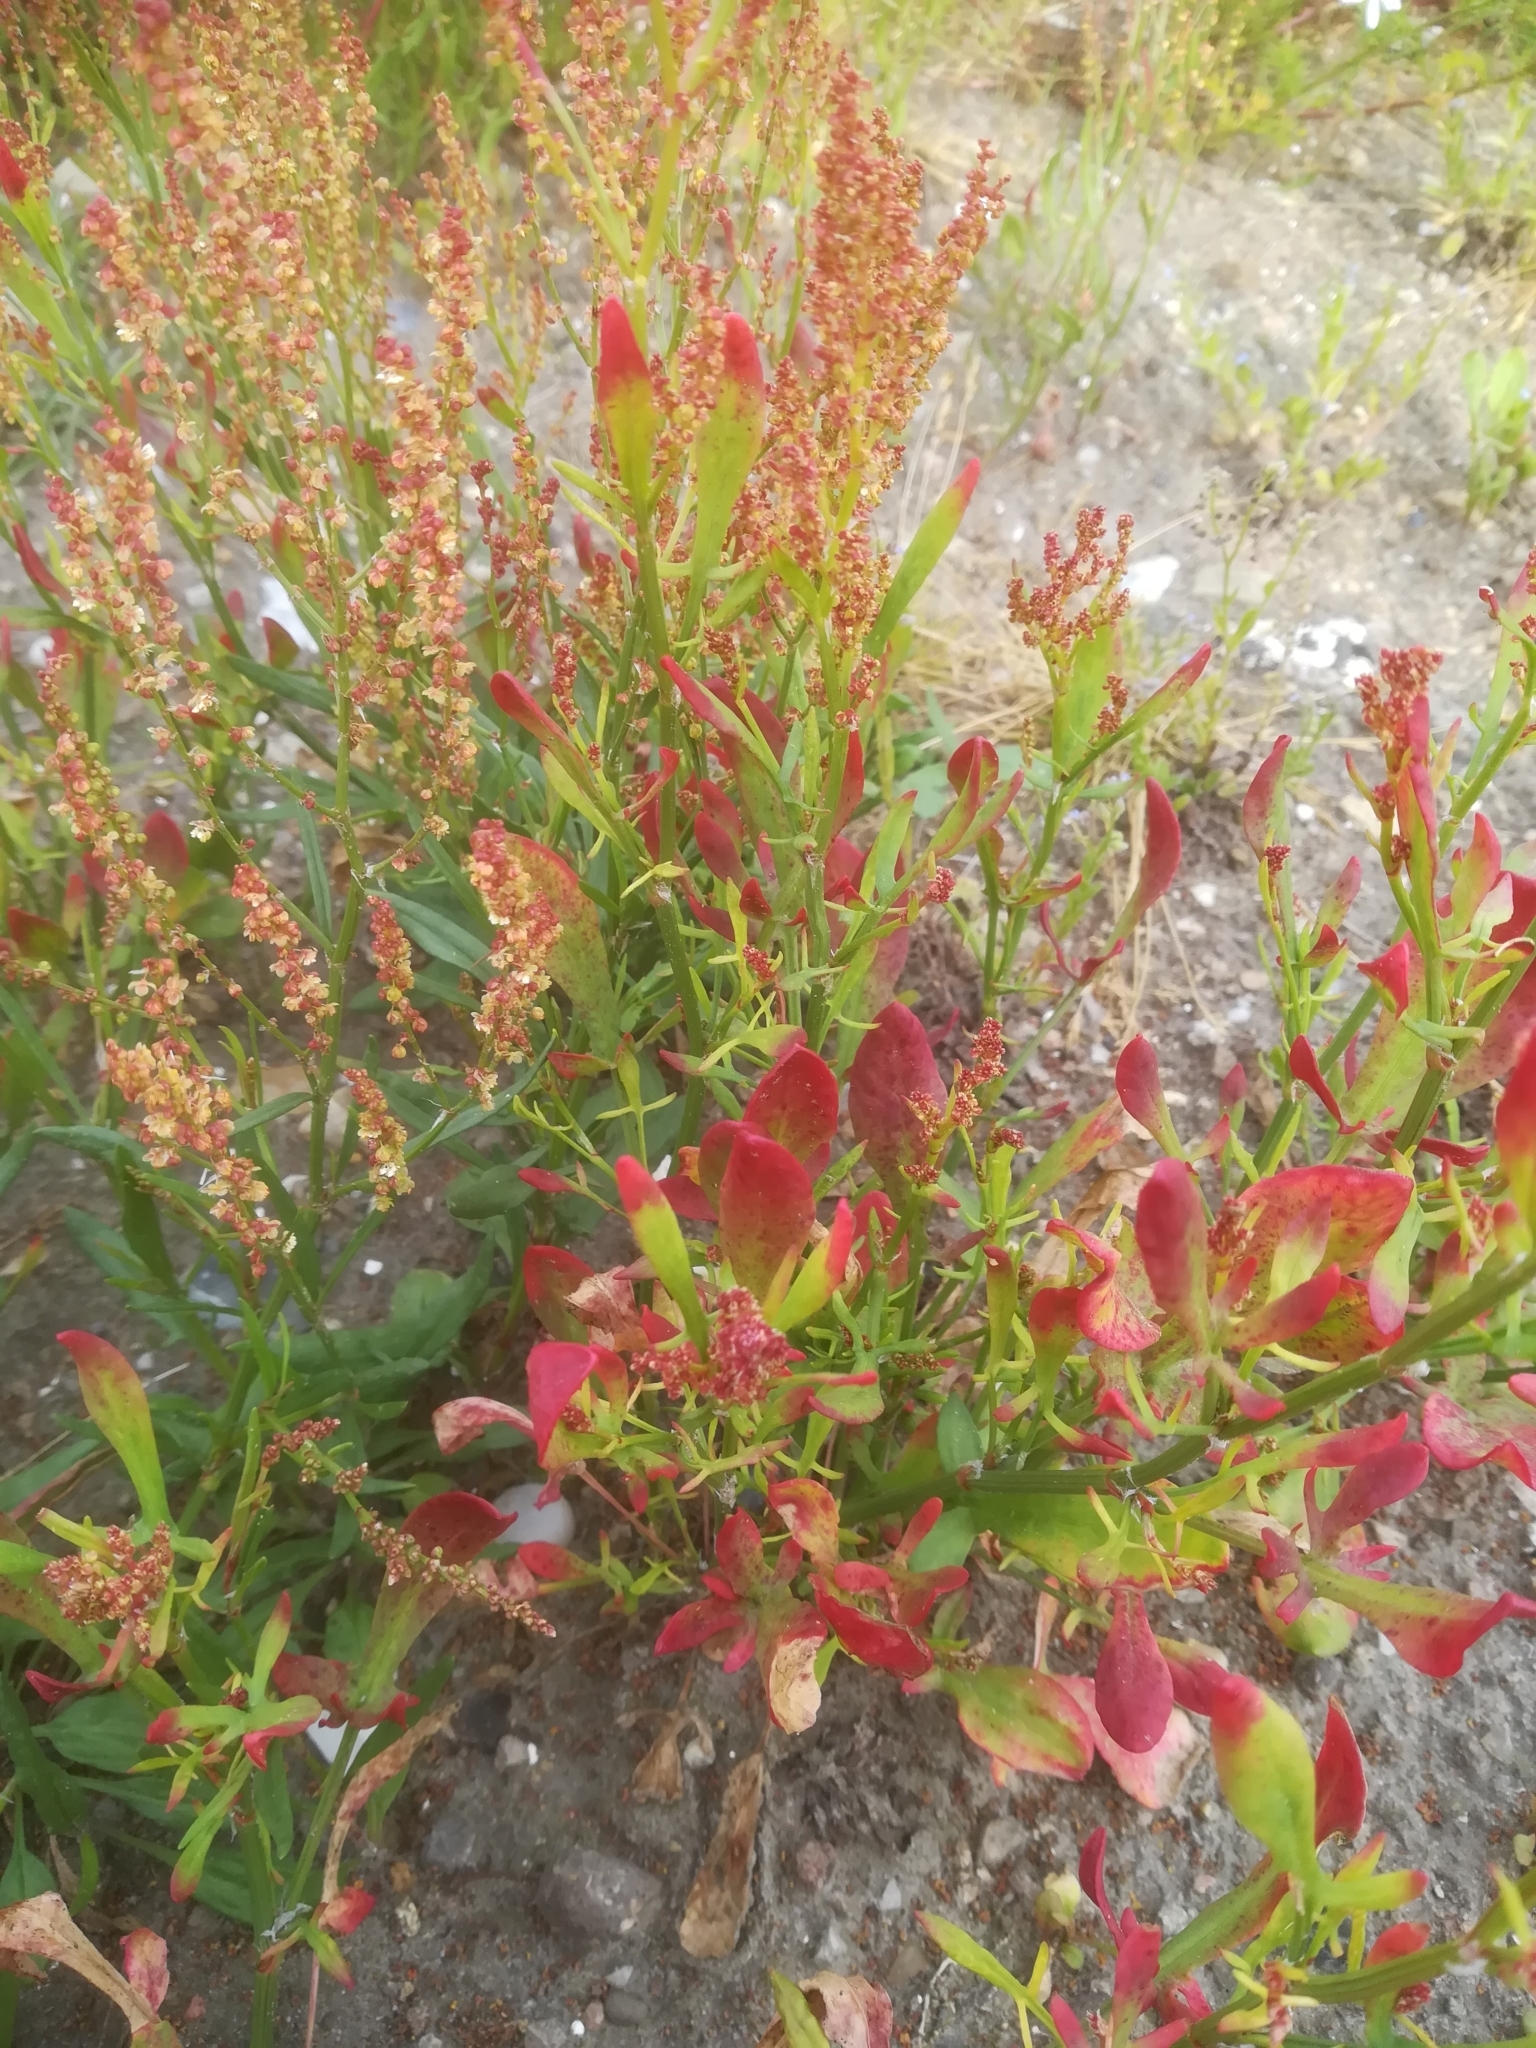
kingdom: Plantae
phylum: Tracheophyta
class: Magnoliopsida
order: Caryophyllales
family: Polygonaceae
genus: Rumex
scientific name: Rumex acetosella
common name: Common sheep sorrel
